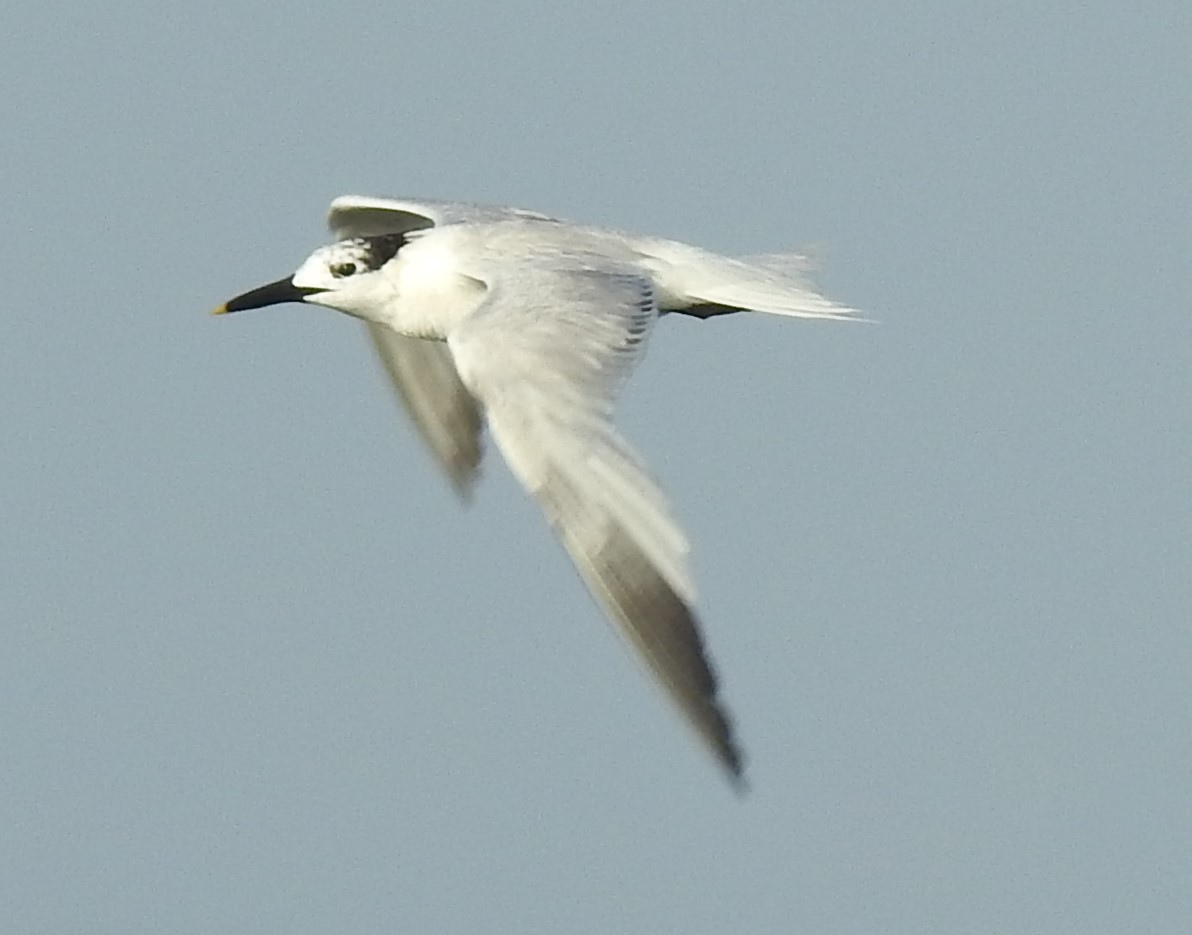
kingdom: Animalia
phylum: Chordata
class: Aves
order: Charadriiformes
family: Laridae
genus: Thalasseus
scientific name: Thalasseus sandvicensis
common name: Sandwich tern
